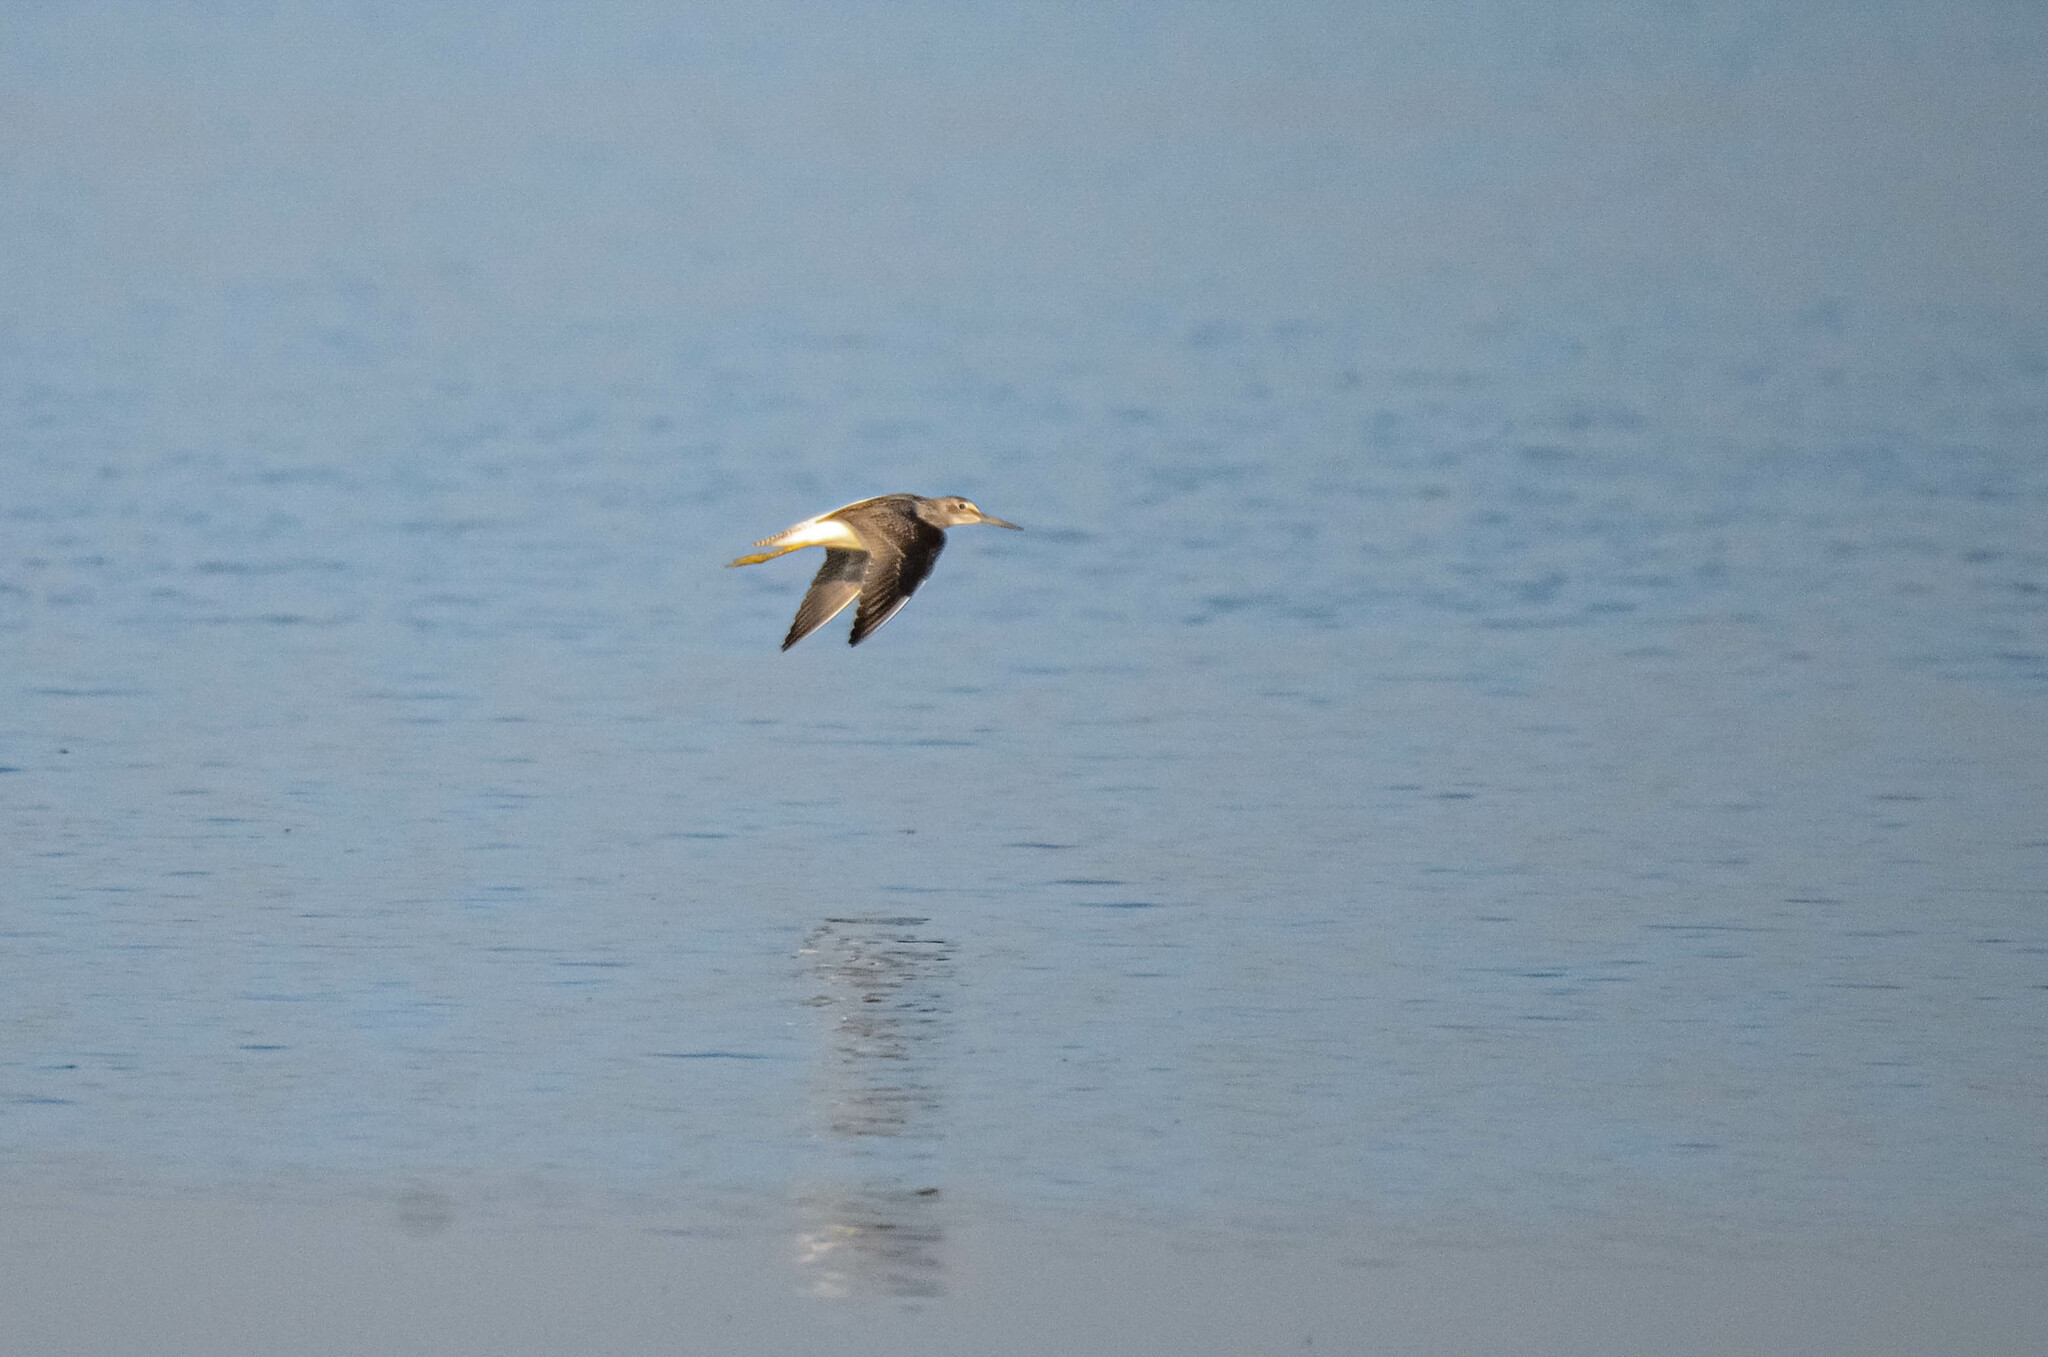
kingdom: Animalia
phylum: Chordata
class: Aves
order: Charadriiformes
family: Scolopacidae
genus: Tringa
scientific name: Tringa nebularia
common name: Common greenshank
